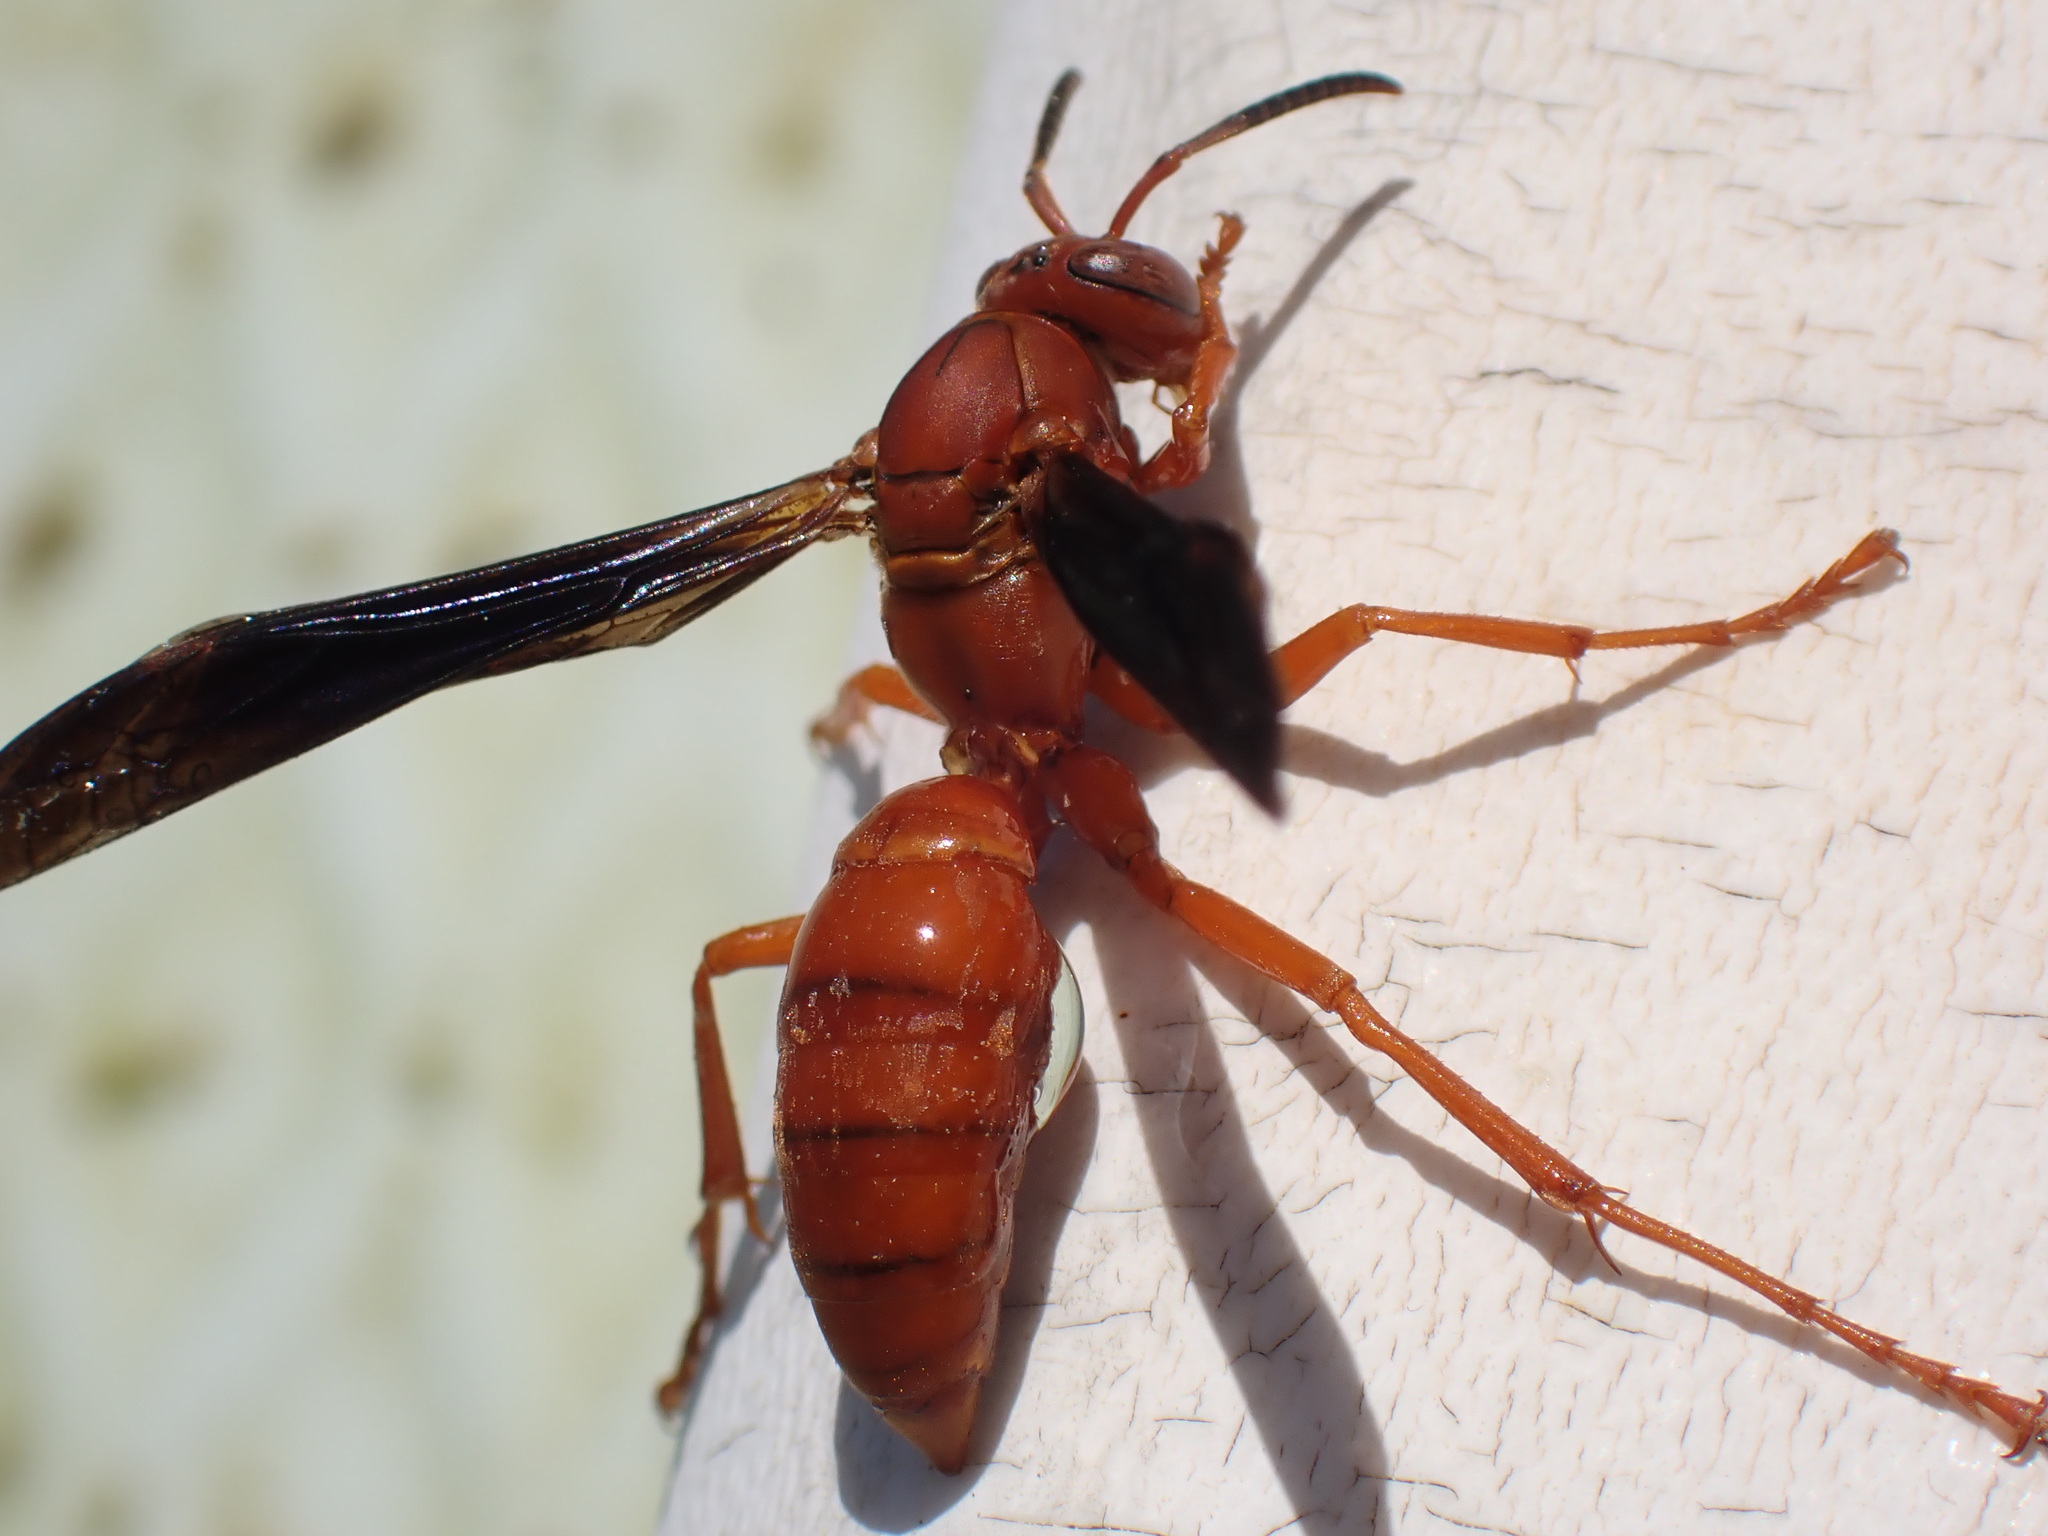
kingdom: Animalia
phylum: Arthropoda
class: Insecta
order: Hymenoptera
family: Eumenidae
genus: Polistes
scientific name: Polistes carolina
